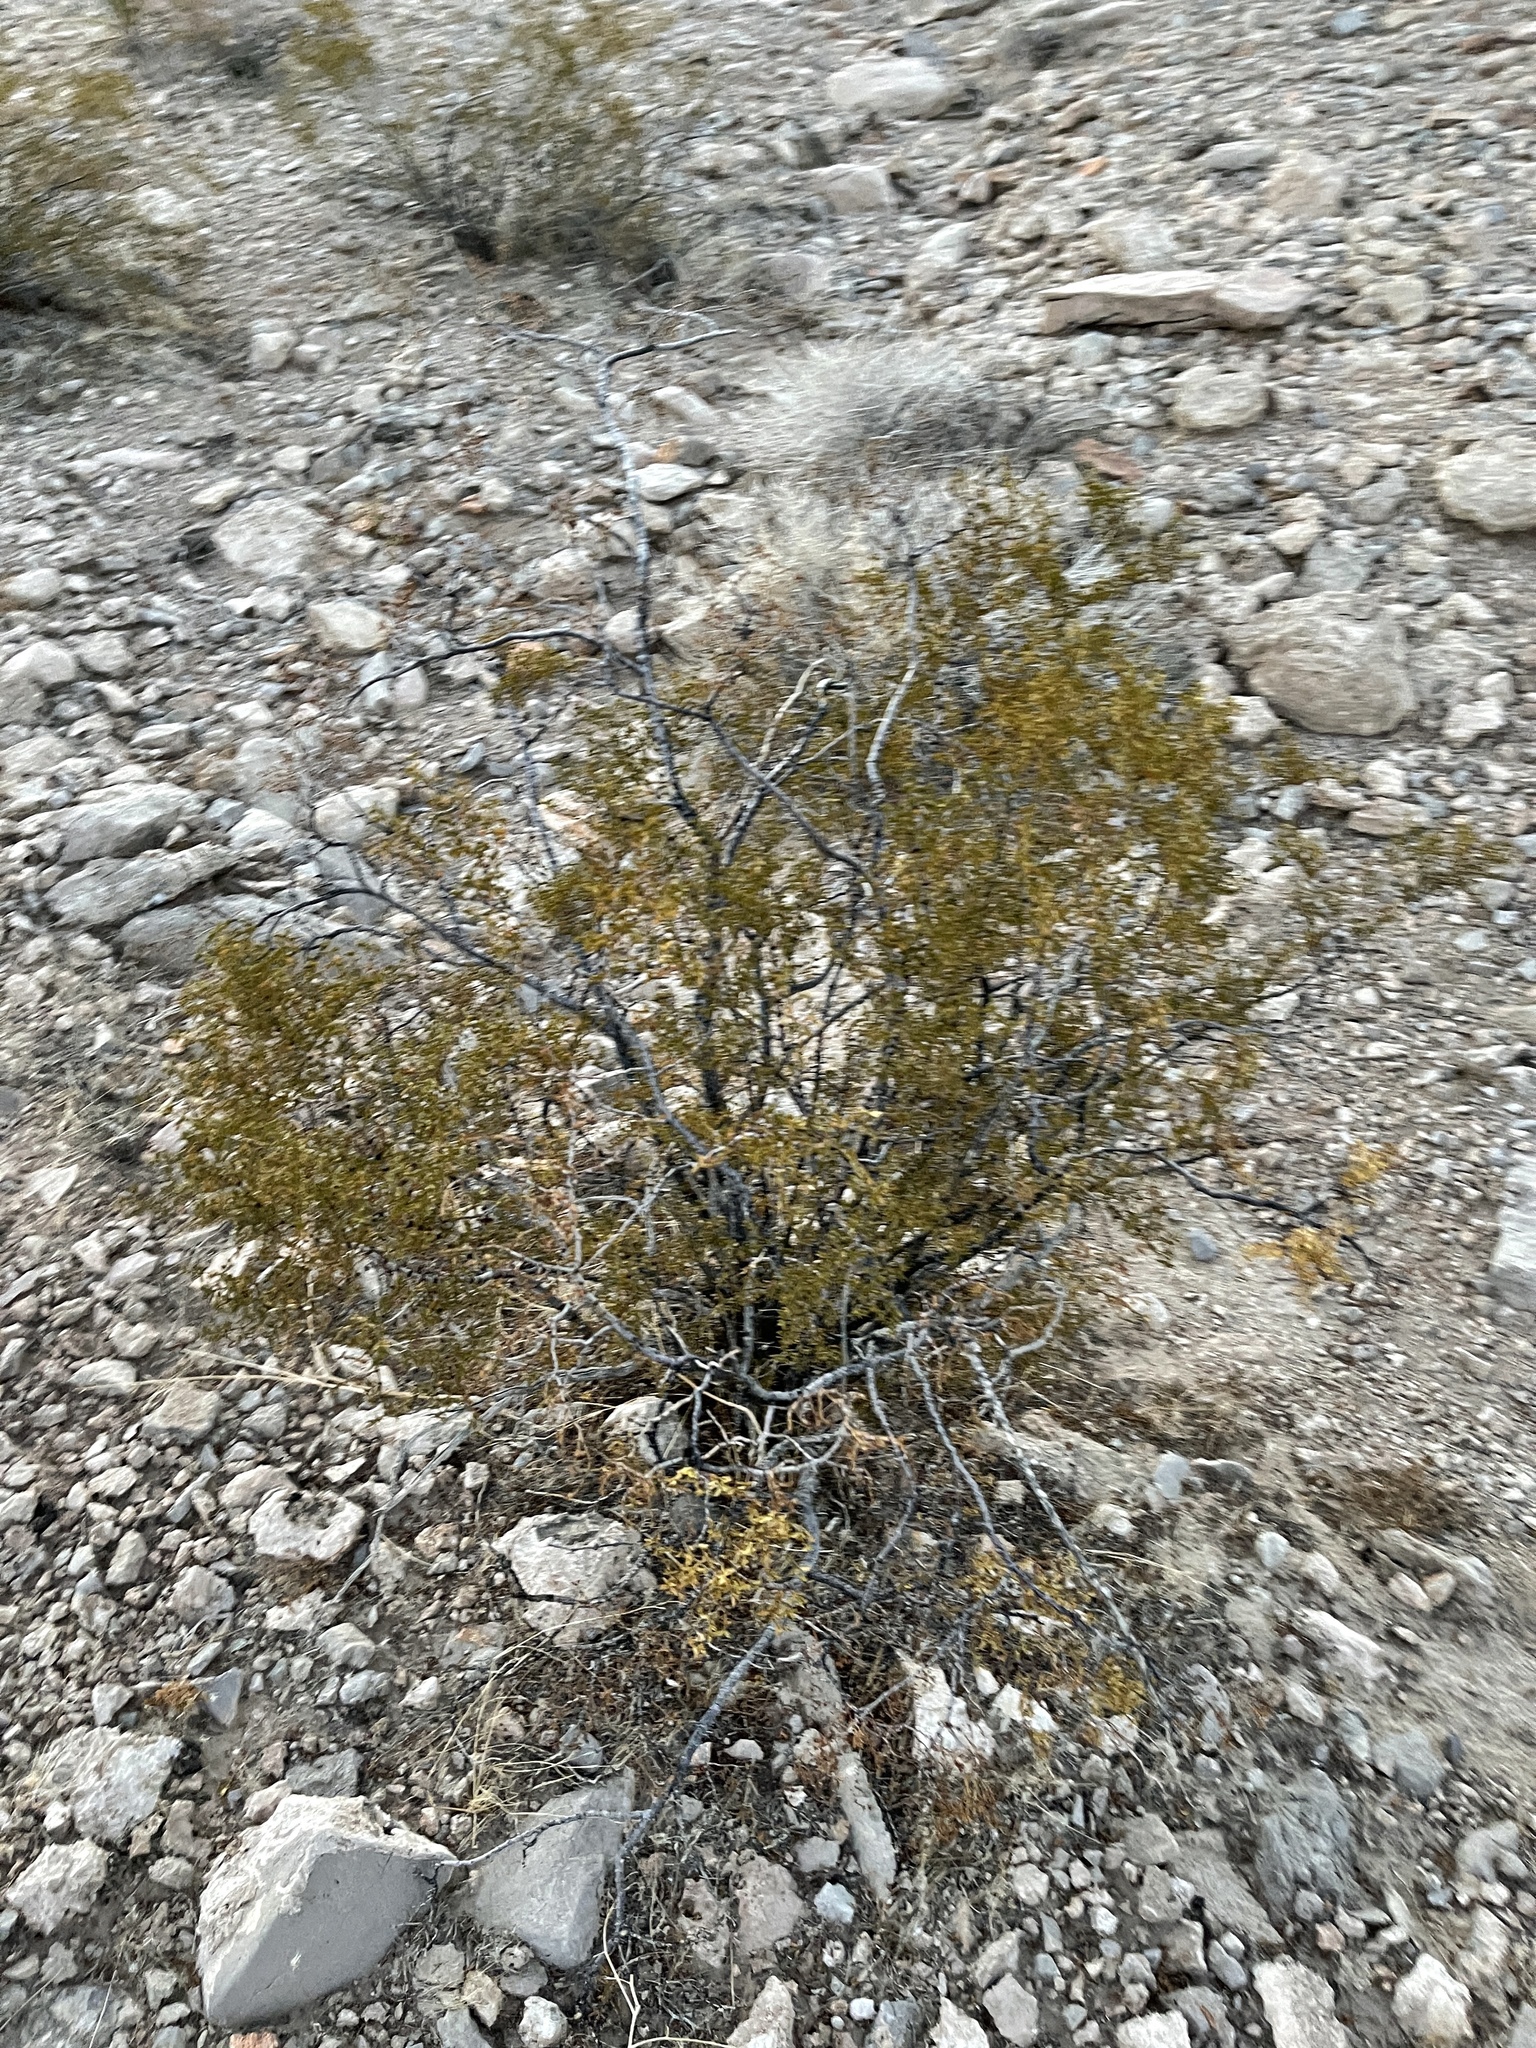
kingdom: Plantae
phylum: Tracheophyta
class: Magnoliopsida
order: Zygophyllales
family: Zygophyllaceae
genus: Larrea
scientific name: Larrea tridentata
